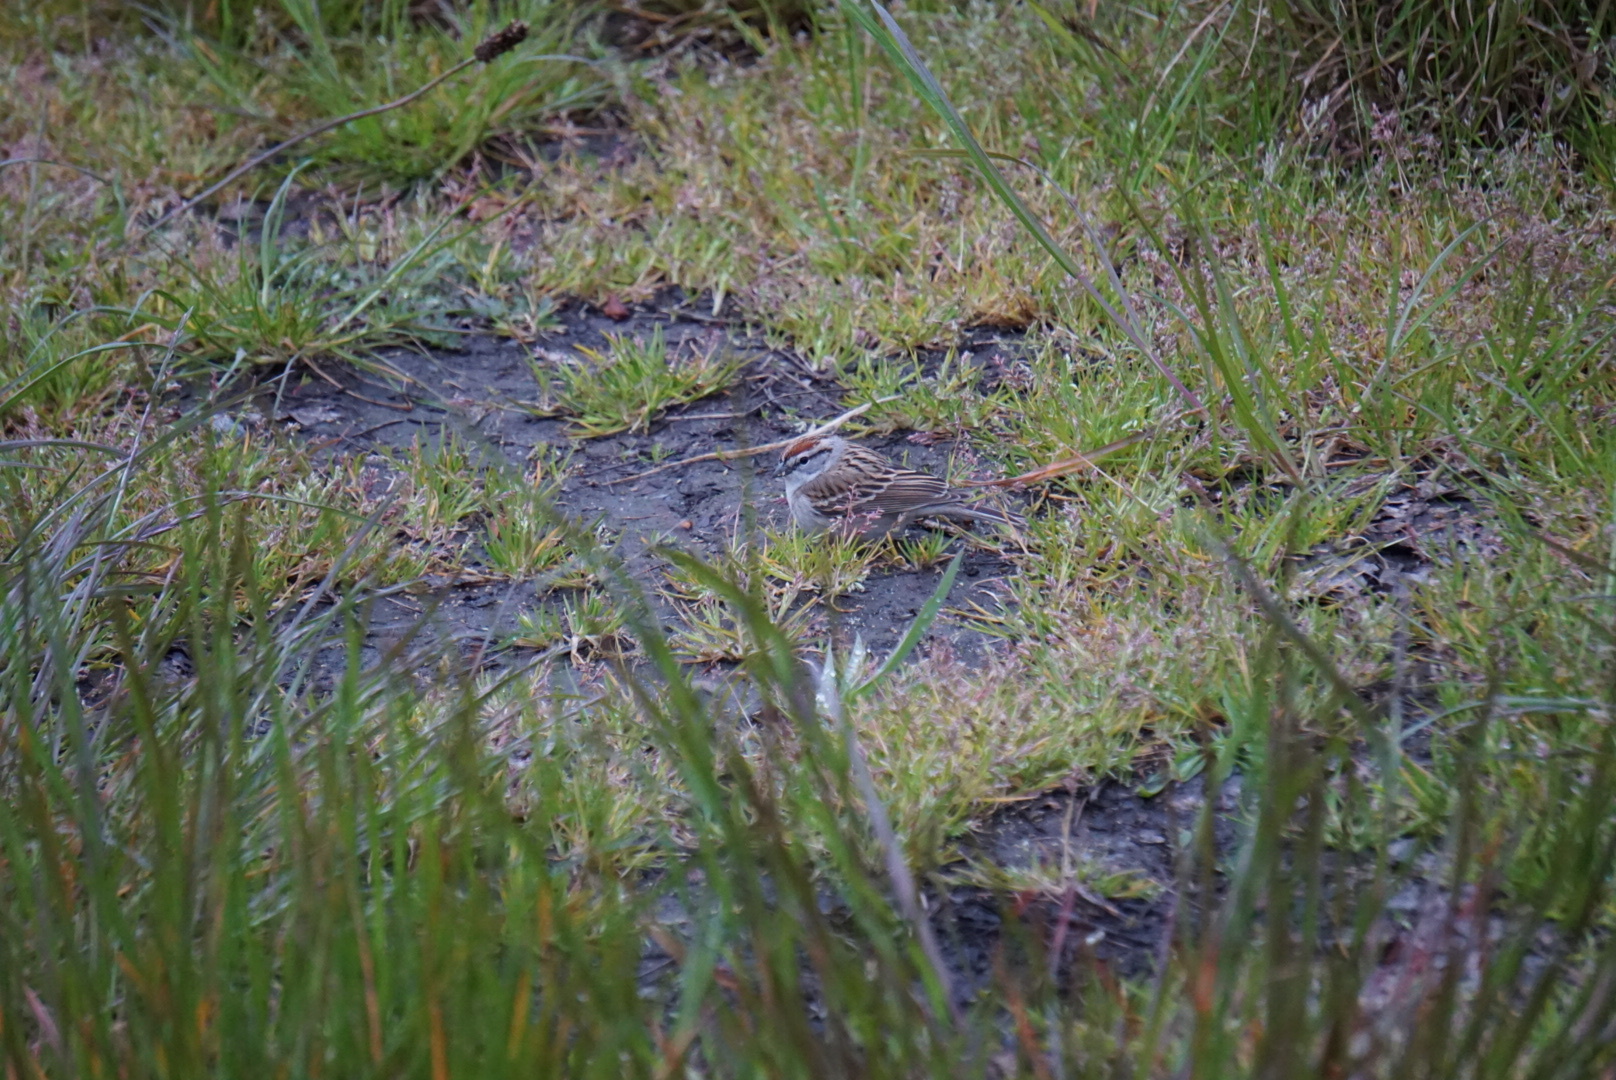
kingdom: Animalia
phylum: Chordata
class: Aves
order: Passeriformes
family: Passerellidae
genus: Spizella
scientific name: Spizella passerina
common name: Chipping sparrow
